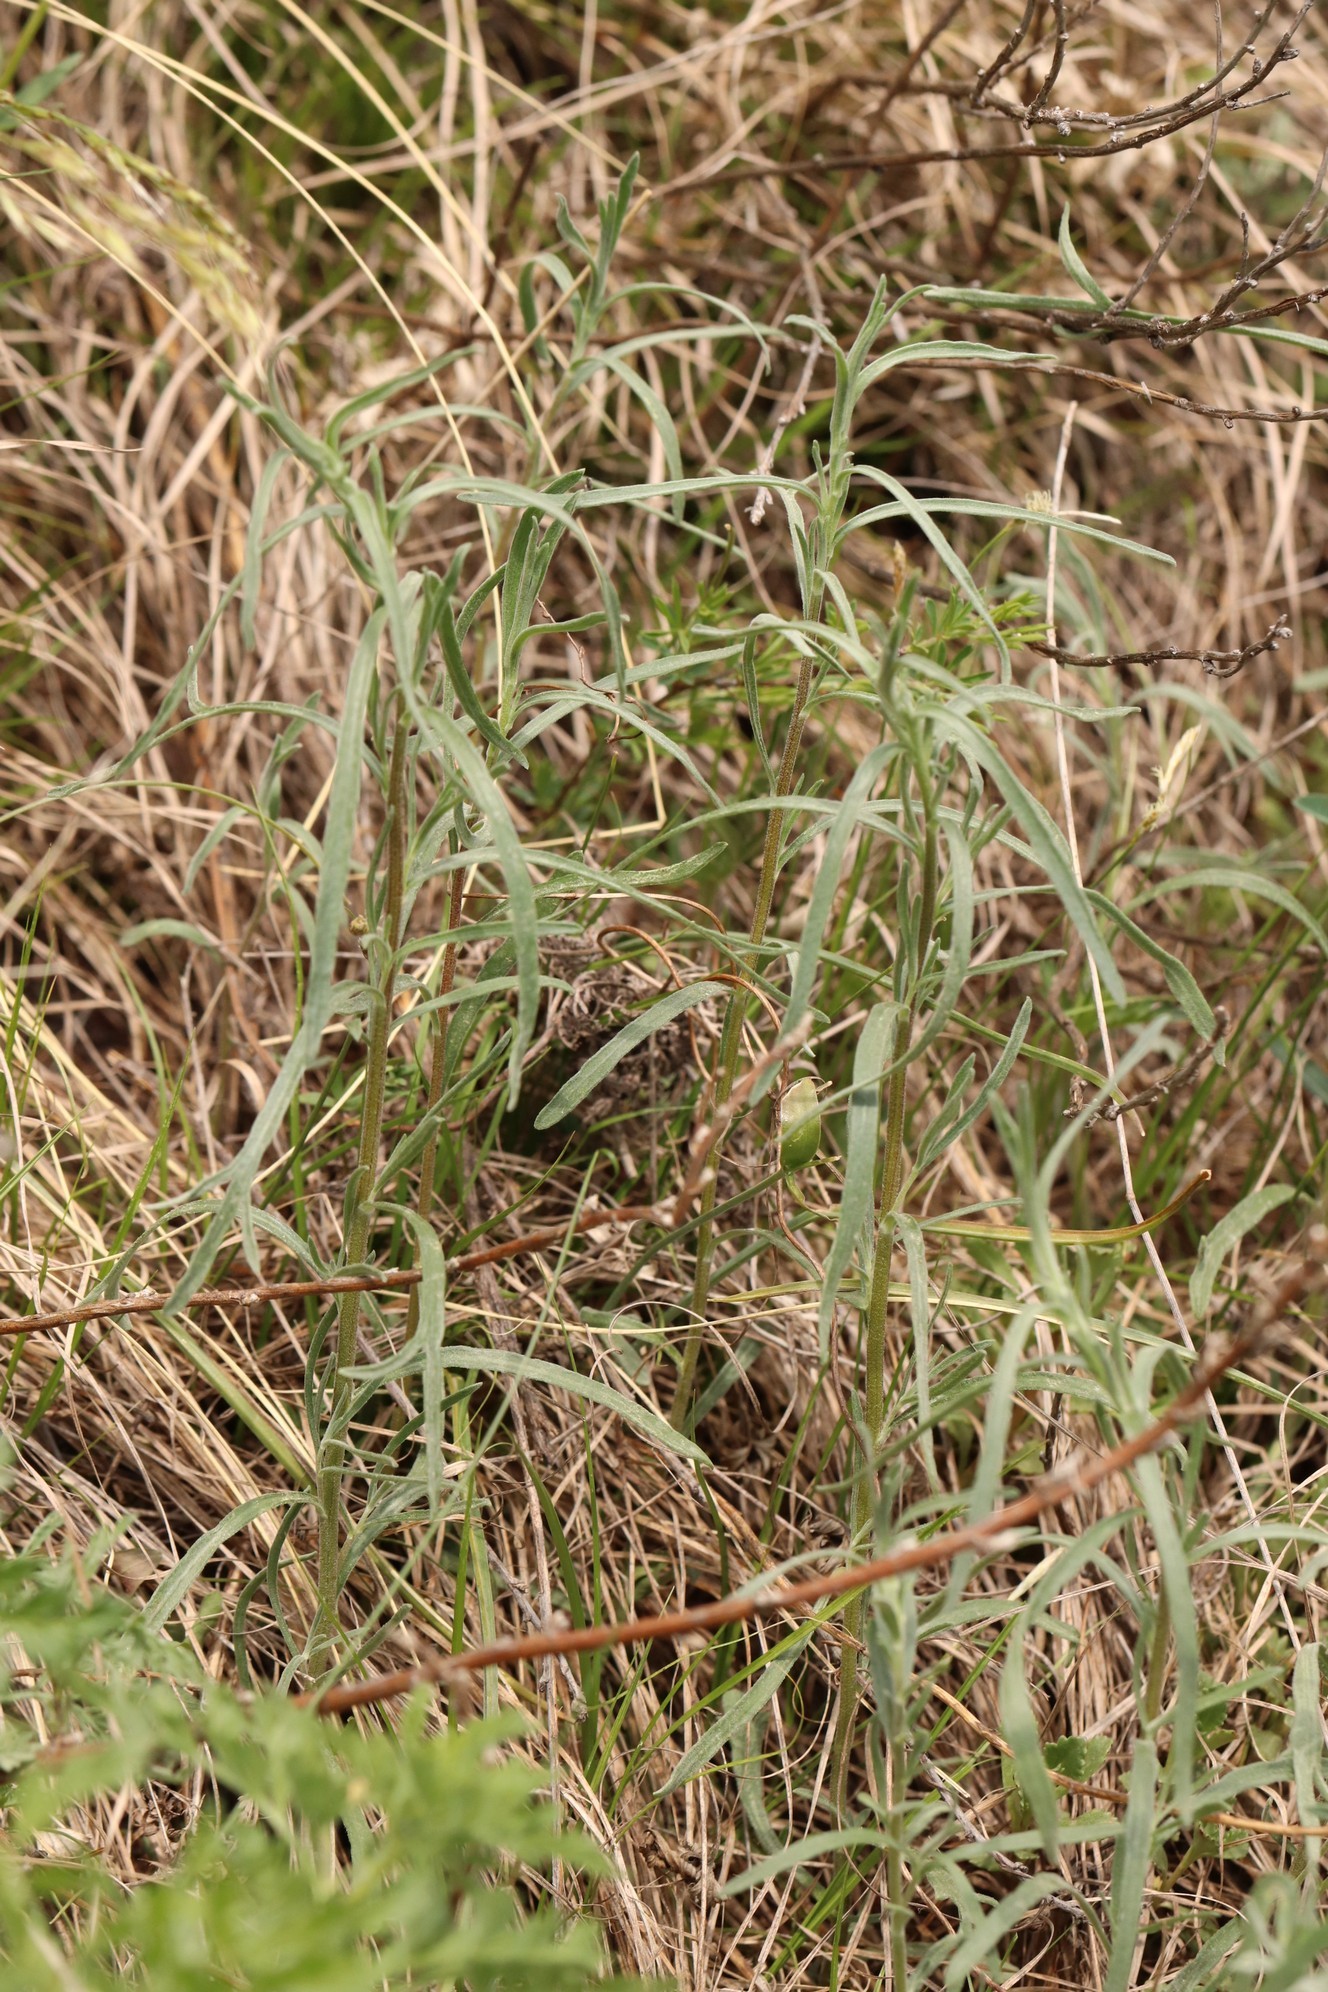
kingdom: Plantae
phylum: Tracheophyta
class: Magnoliopsida
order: Asterales
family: Asteraceae
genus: Artemisia
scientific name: Artemisia dracunculus
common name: Tarragon
